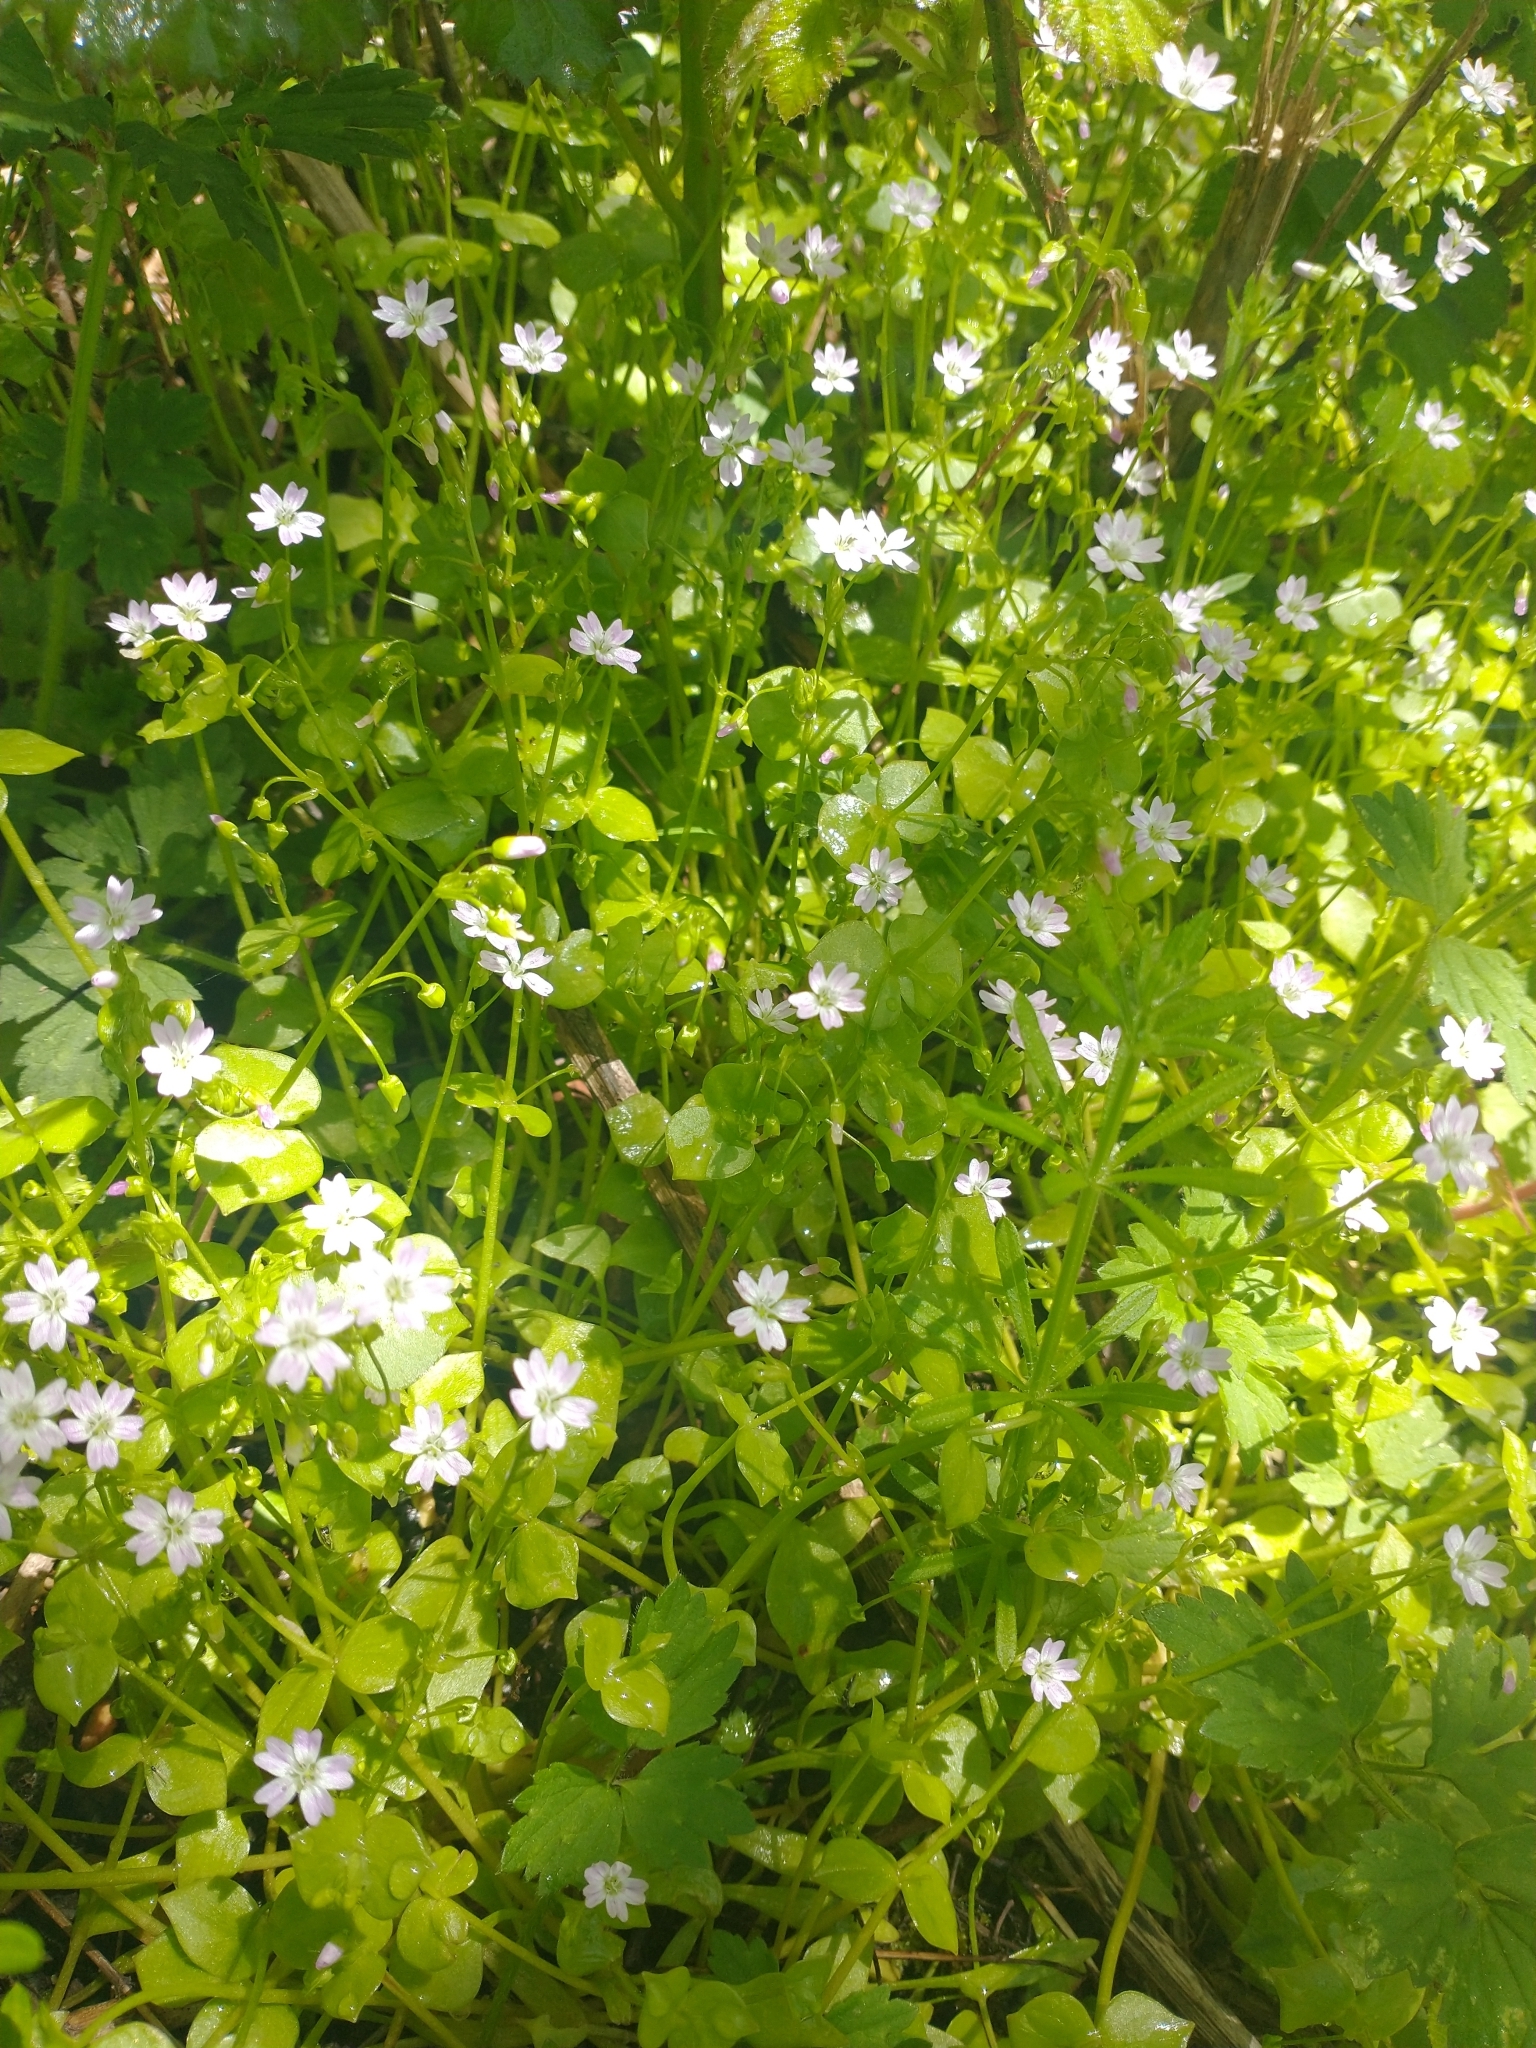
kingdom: Plantae
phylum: Tracheophyta
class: Magnoliopsida
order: Caryophyllales
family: Montiaceae
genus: Claytonia
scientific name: Claytonia sibirica
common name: Pink purslane
